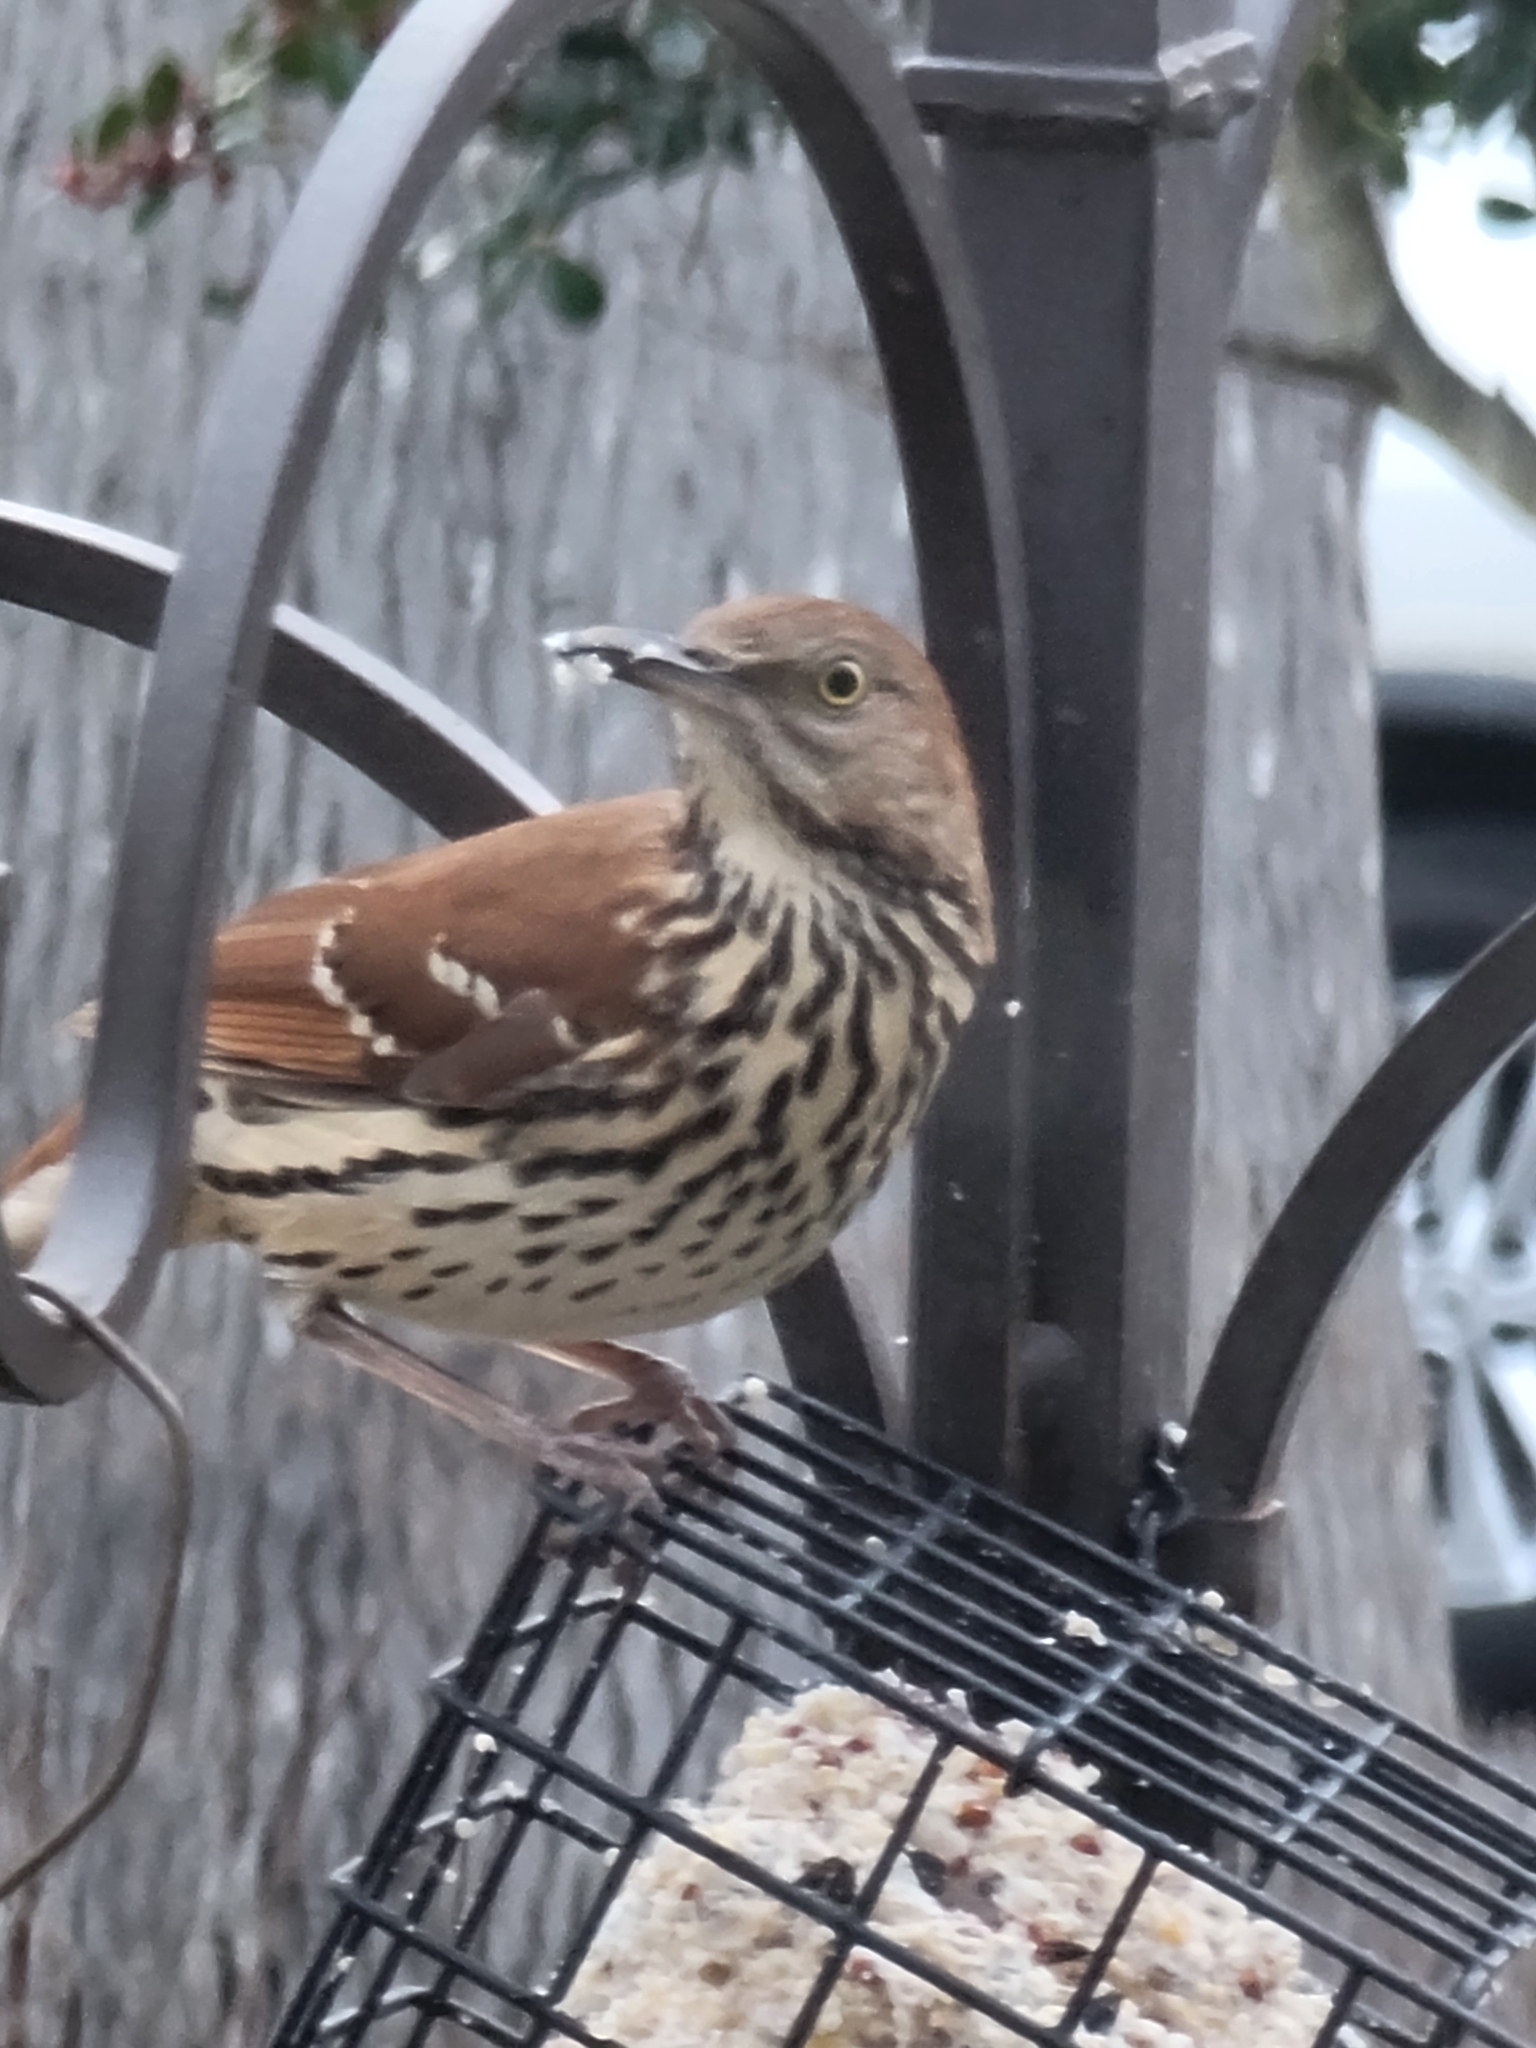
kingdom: Animalia
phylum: Chordata
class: Aves
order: Passeriformes
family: Mimidae
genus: Toxostoma
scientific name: Toxostoma rufum
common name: Brown thrasher
